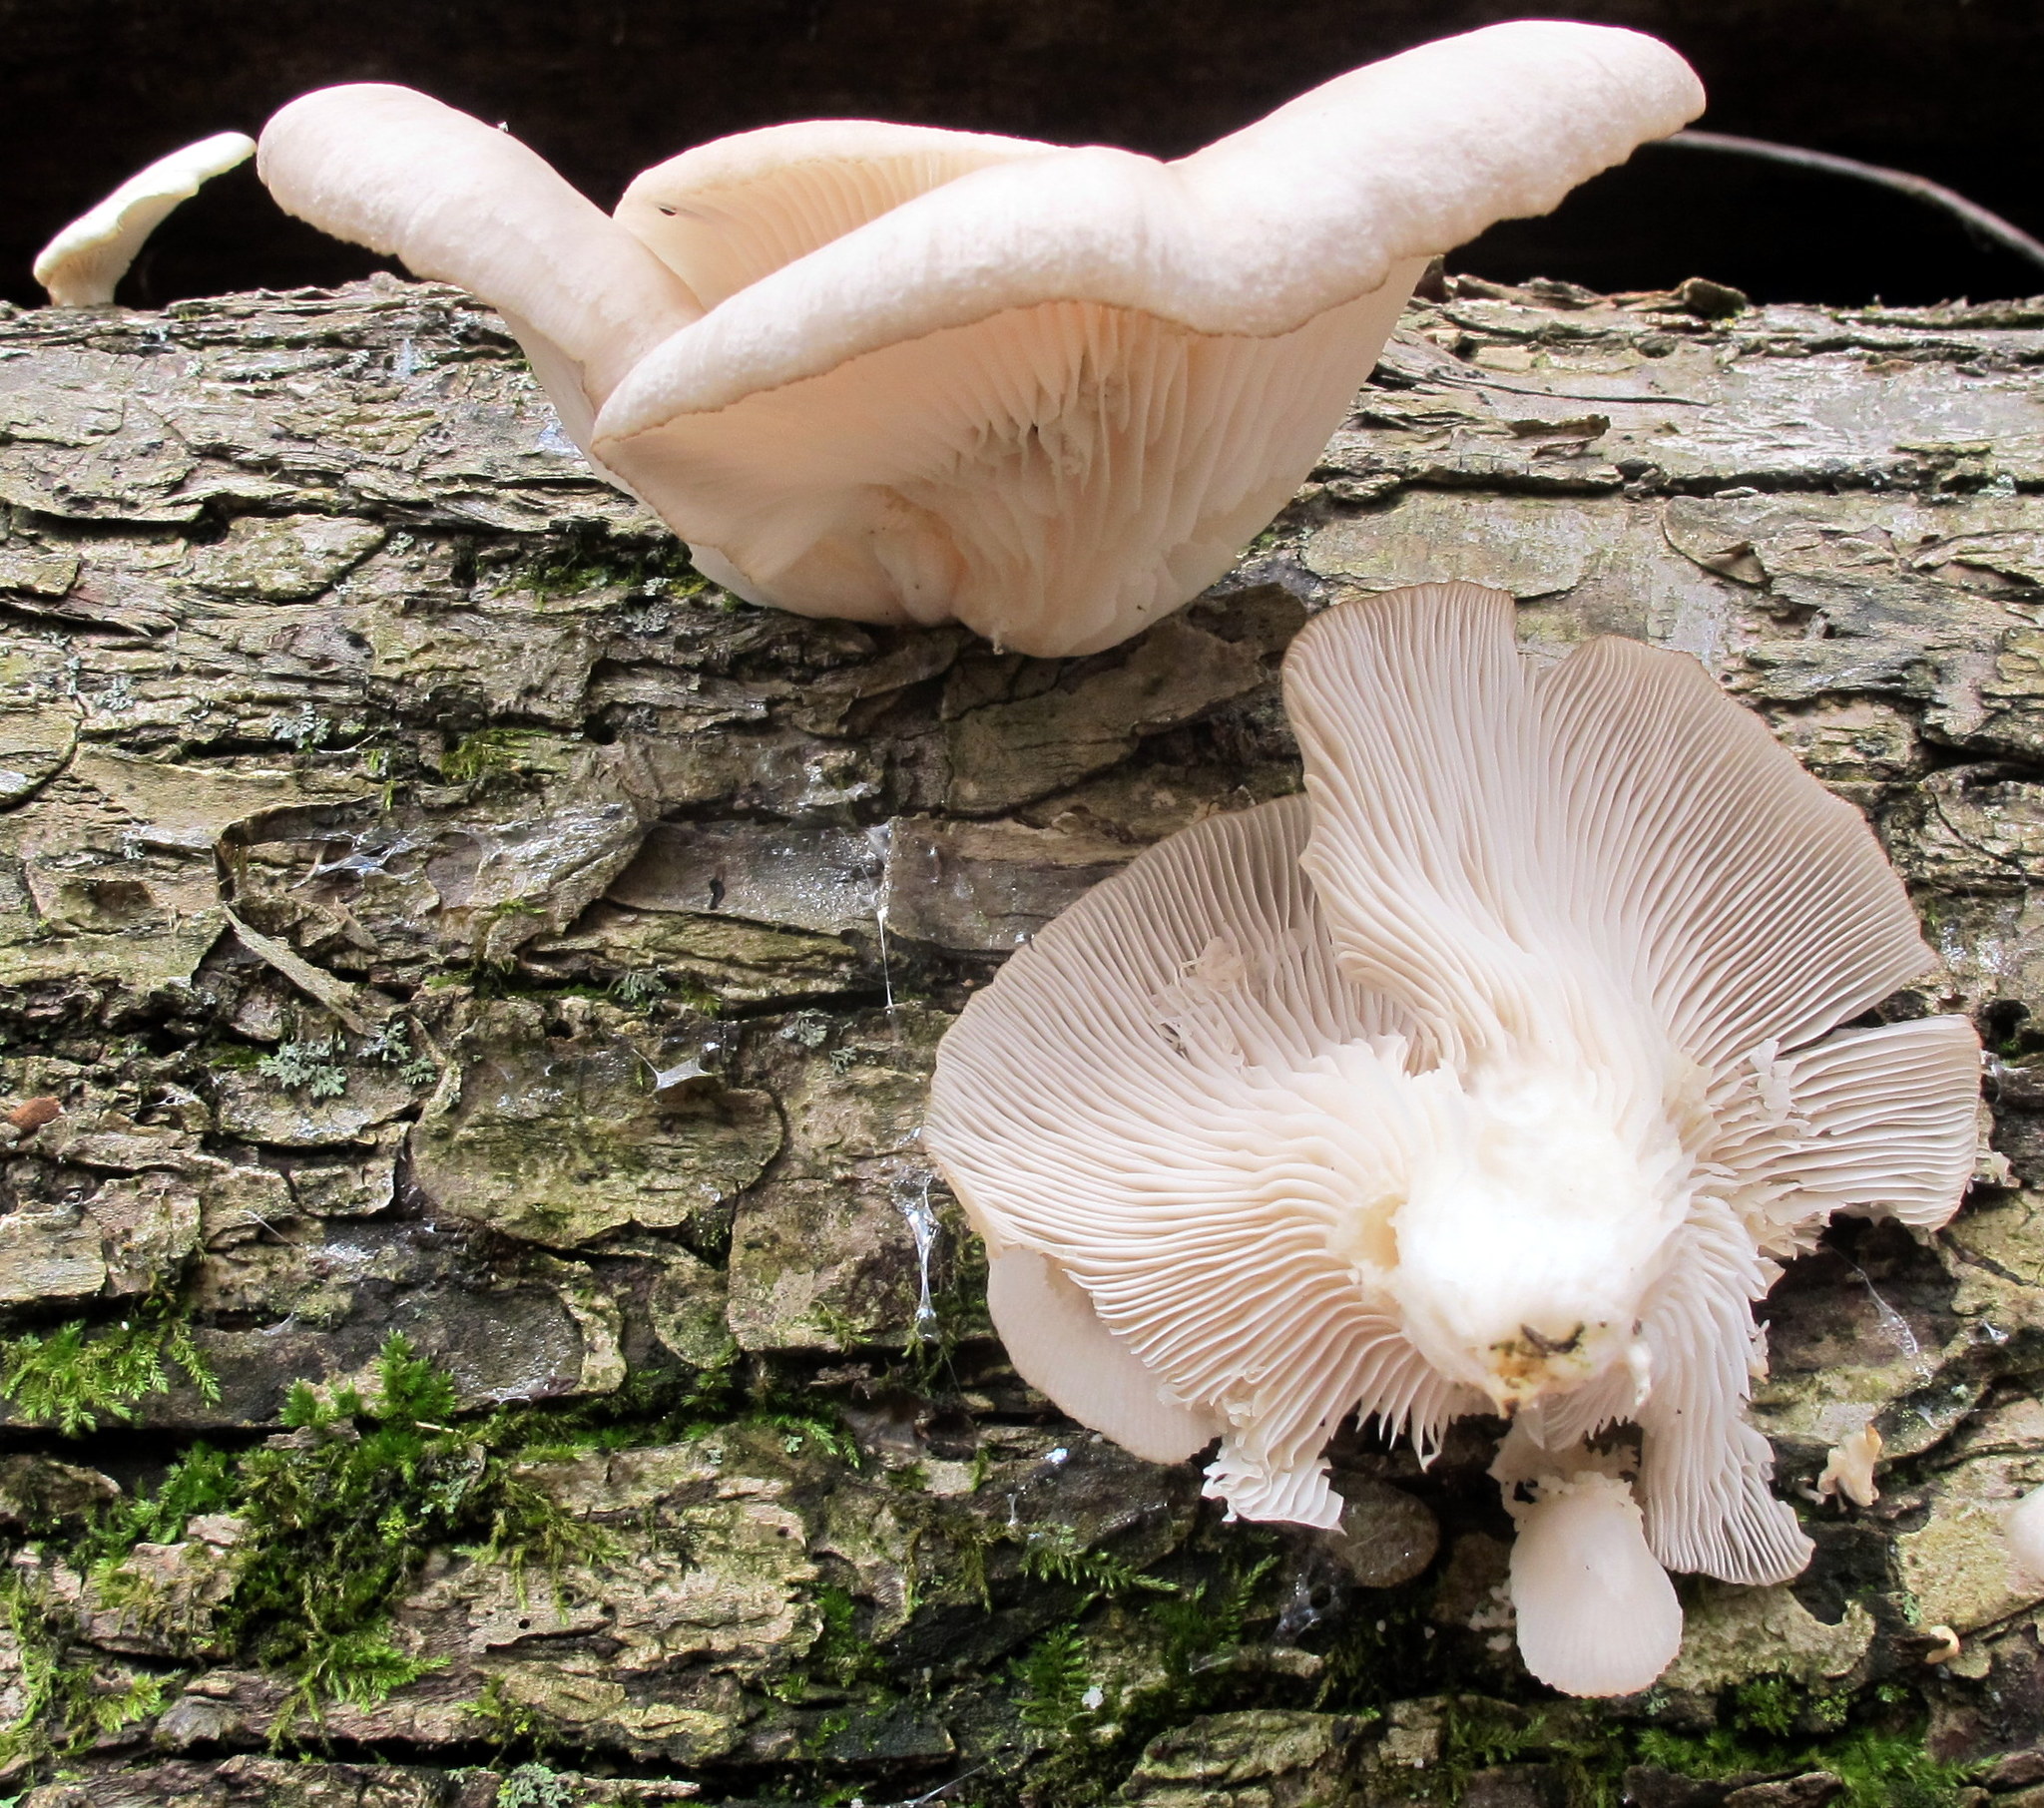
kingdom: Fungi
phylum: Basidiomycota
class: Agaricomycetes
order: Agaricales
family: Pleurotaceae
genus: Pleurotus
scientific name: Pleurotus ostreatus
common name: Oyster mushroom
